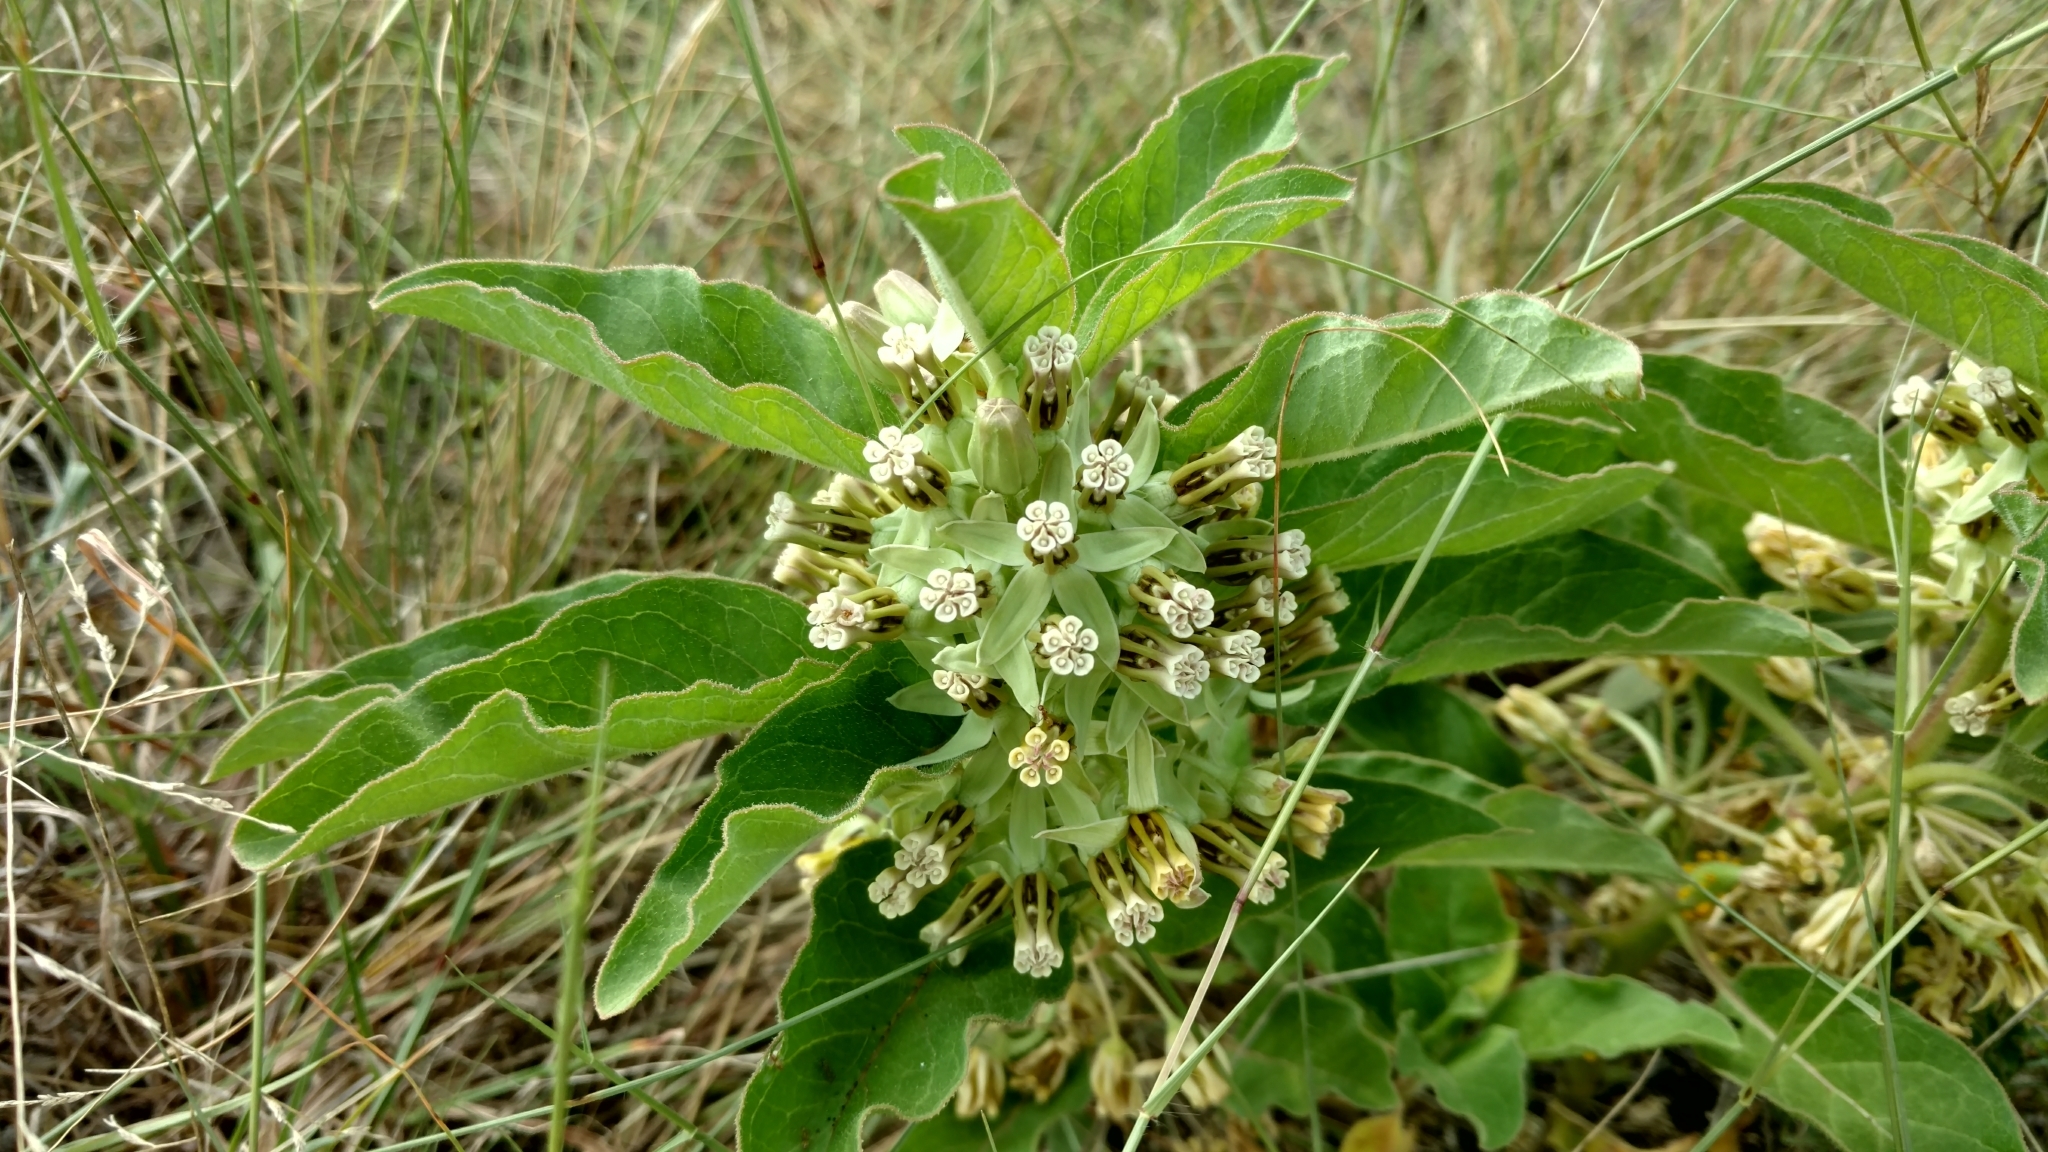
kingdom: Plantae
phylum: Tracheophyta
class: Magnoliopsida
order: Gentianales
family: Apocynaceae
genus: Asclepias
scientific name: Asclepias oenotheroides
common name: Zizotes milkweed
